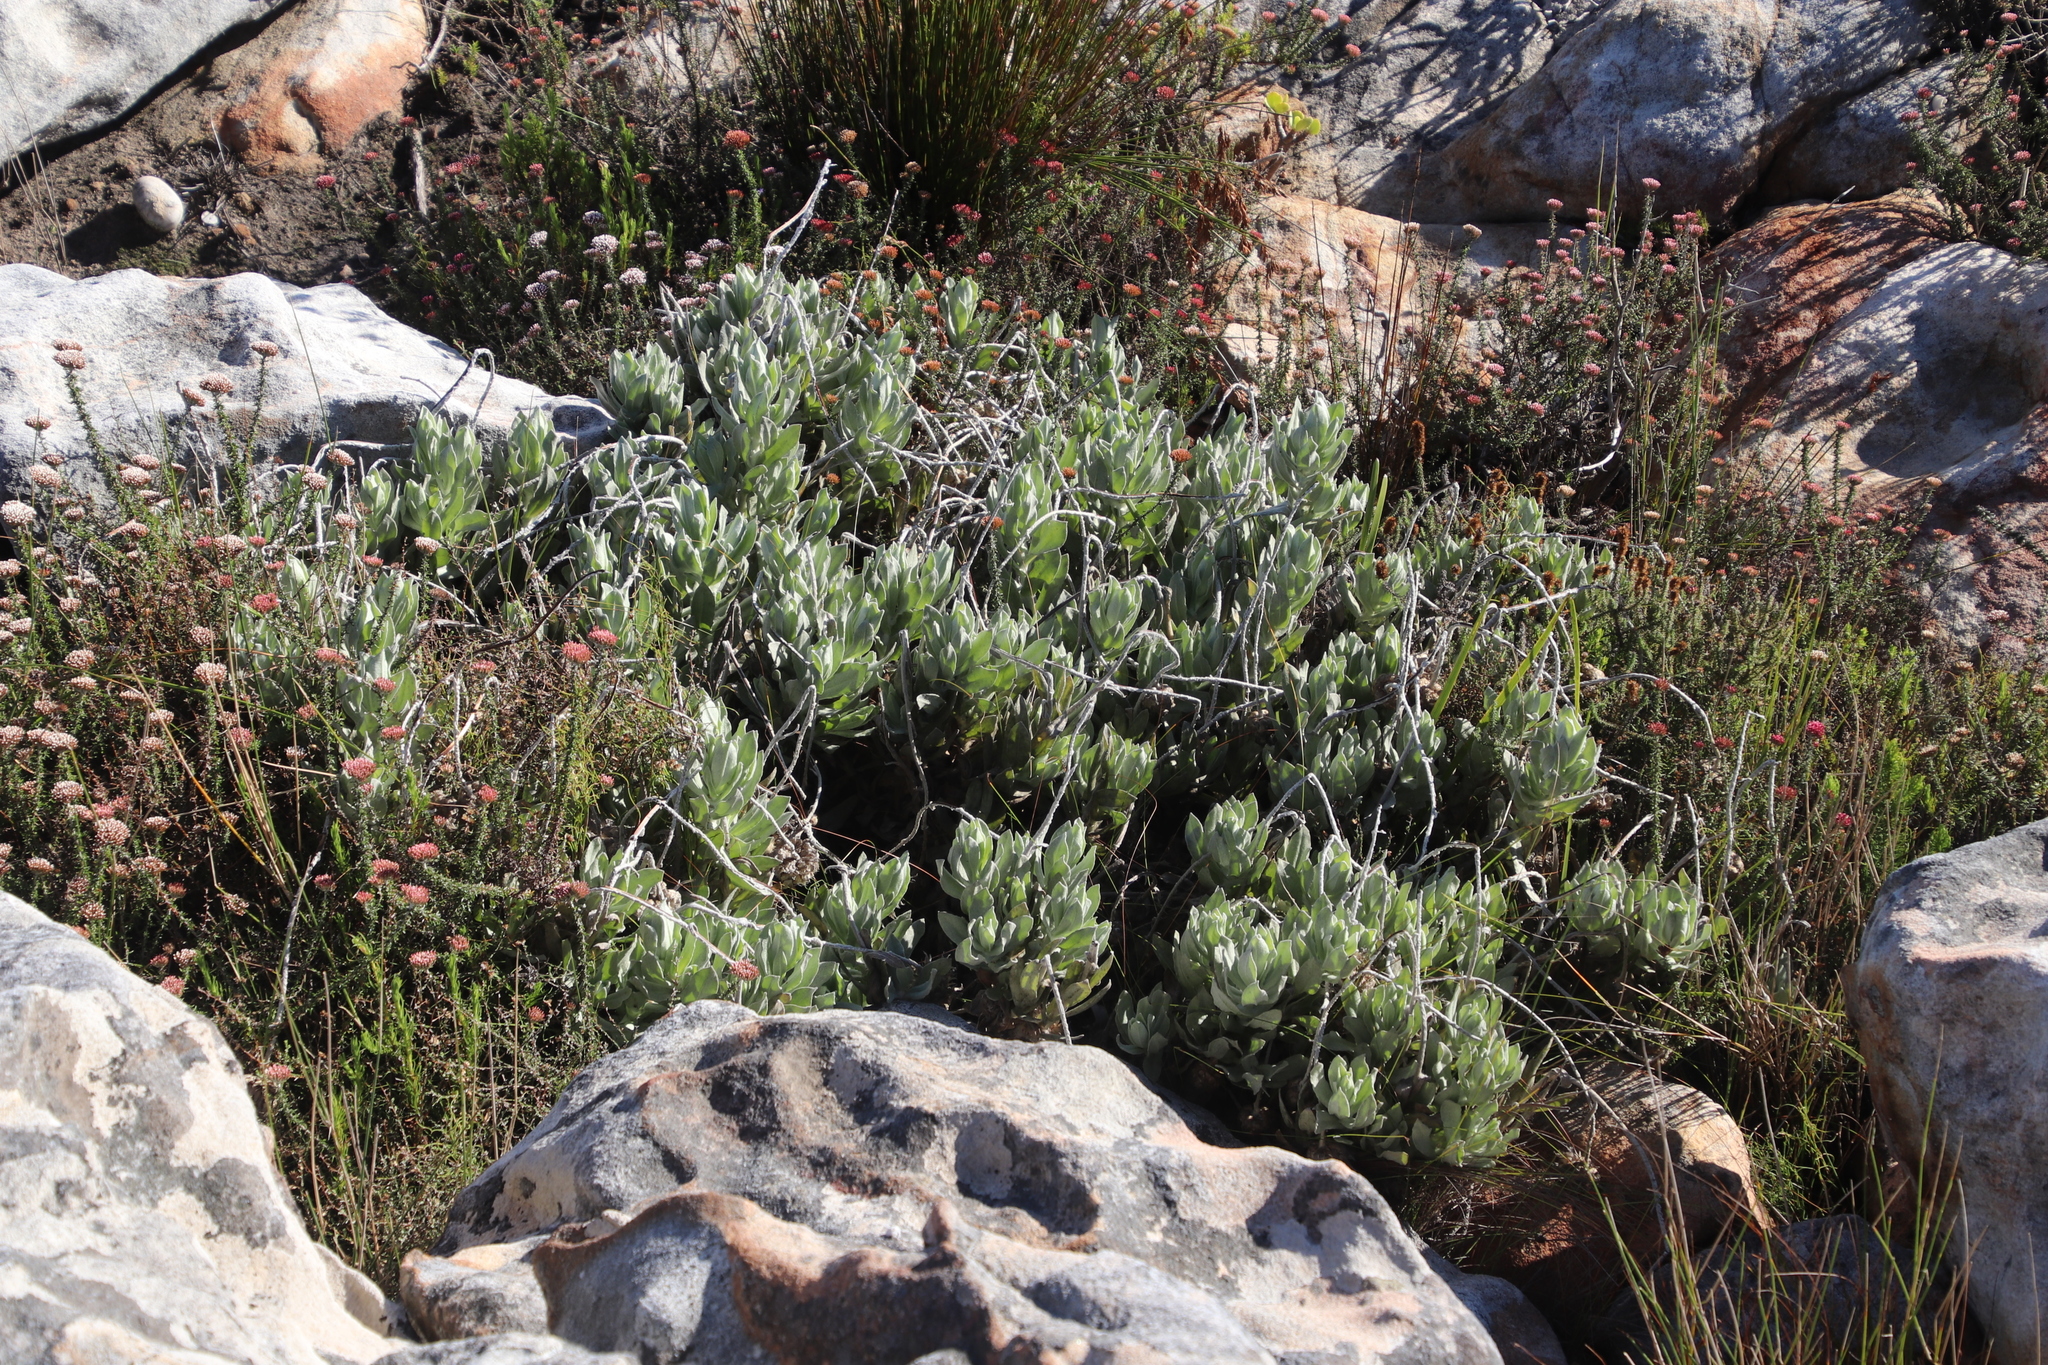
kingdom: Plantae
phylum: Tracheophyta
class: Magnoliopsida
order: Asterales
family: Asteraceae
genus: Syncarpha
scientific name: Syncarpha speciosissima
